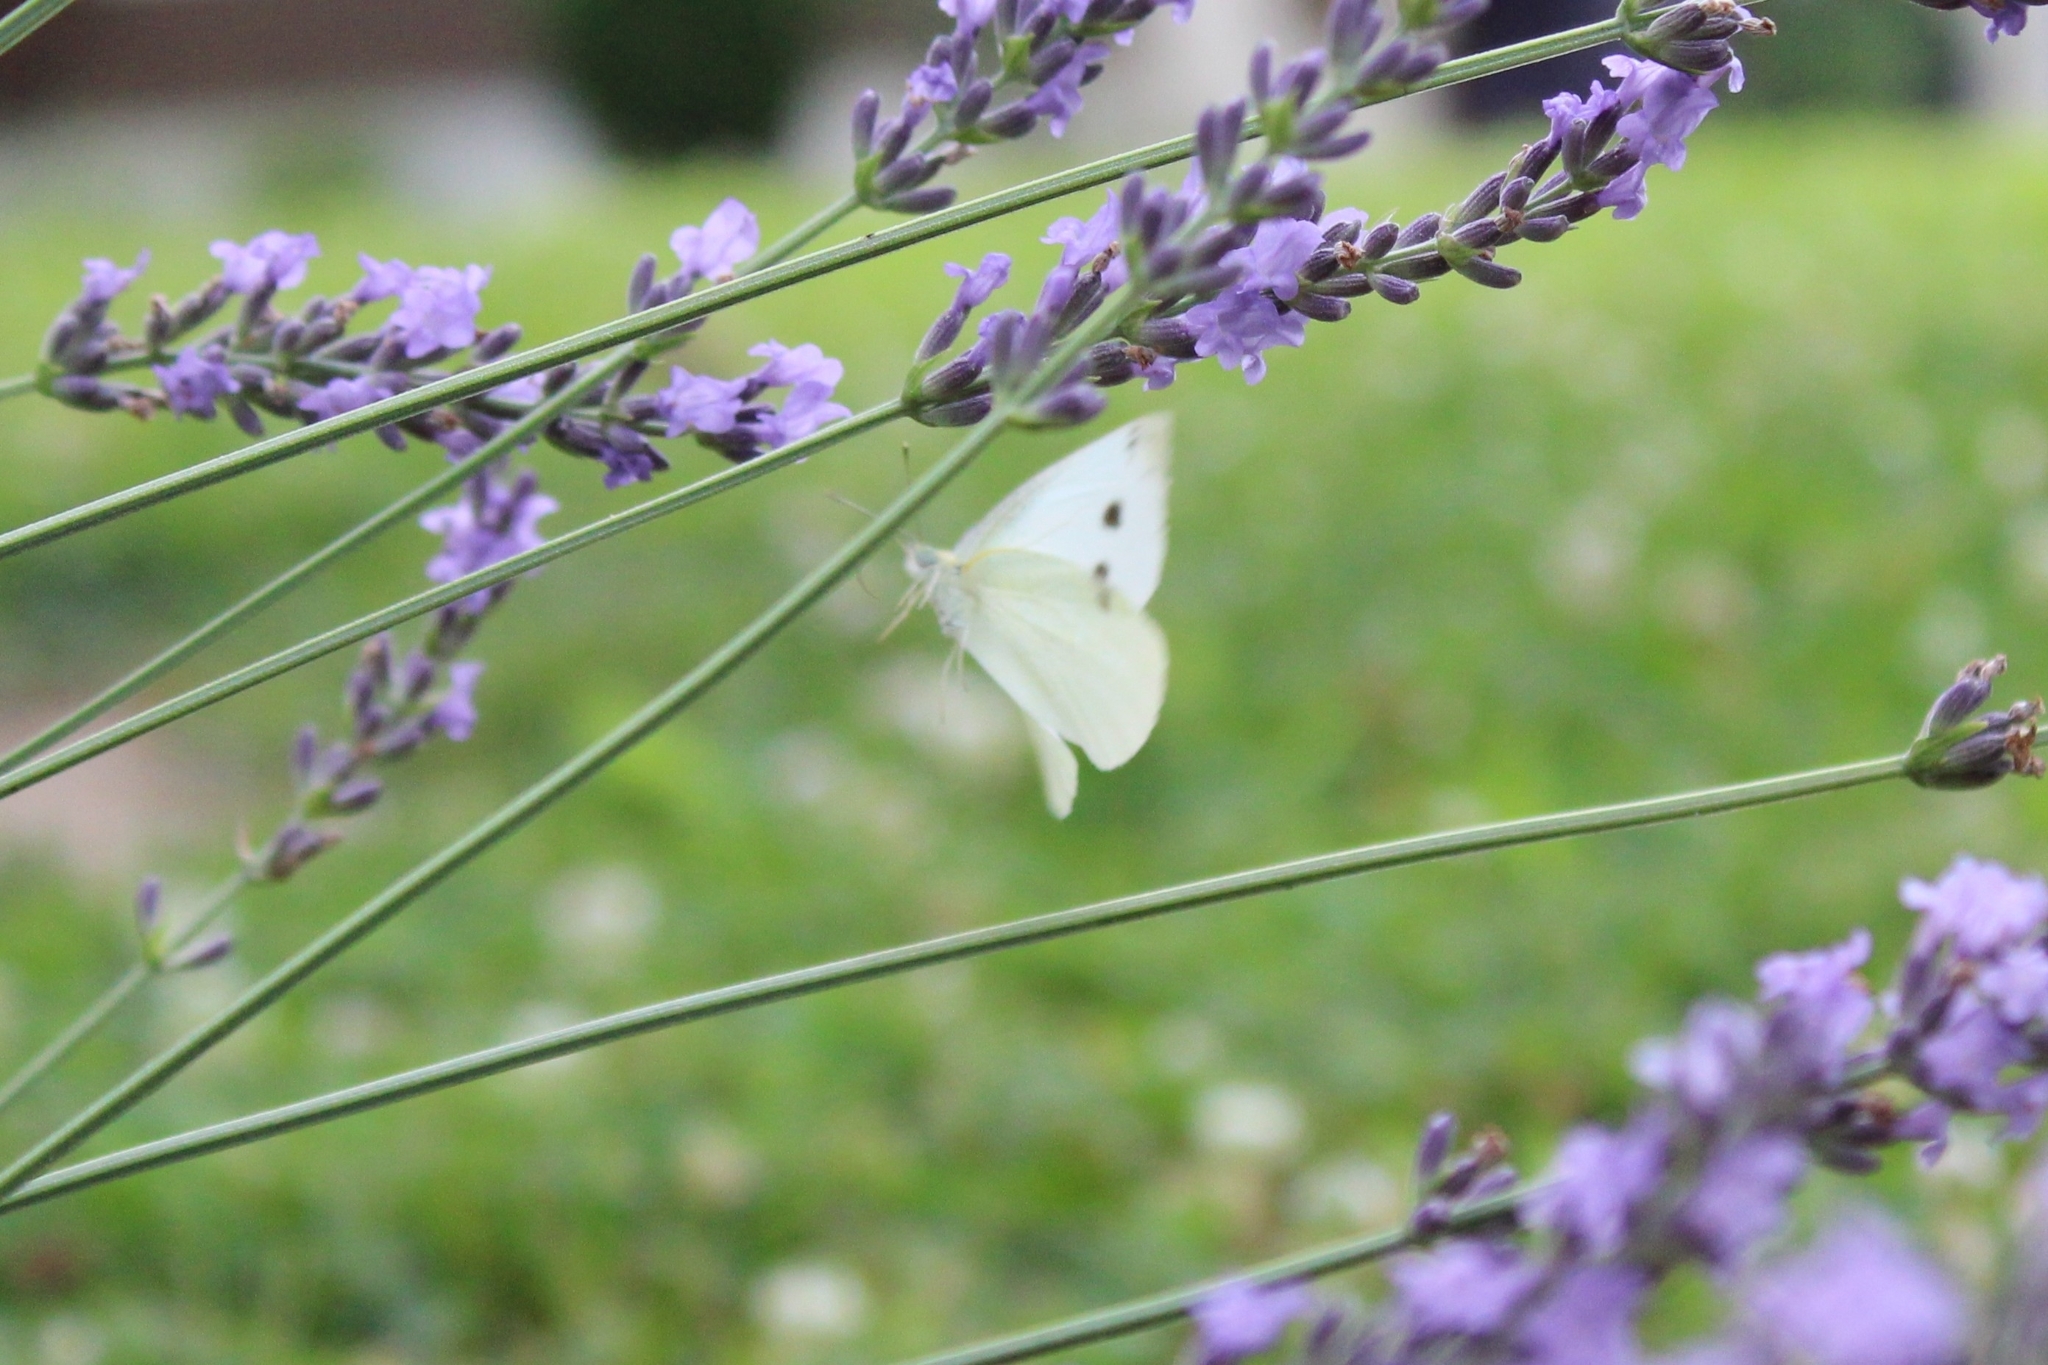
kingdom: Animalia
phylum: Arthropoda
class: Insecta
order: Lepidoptera
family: Pieridae
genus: Pieris
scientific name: Pieris rapae
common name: Small white
